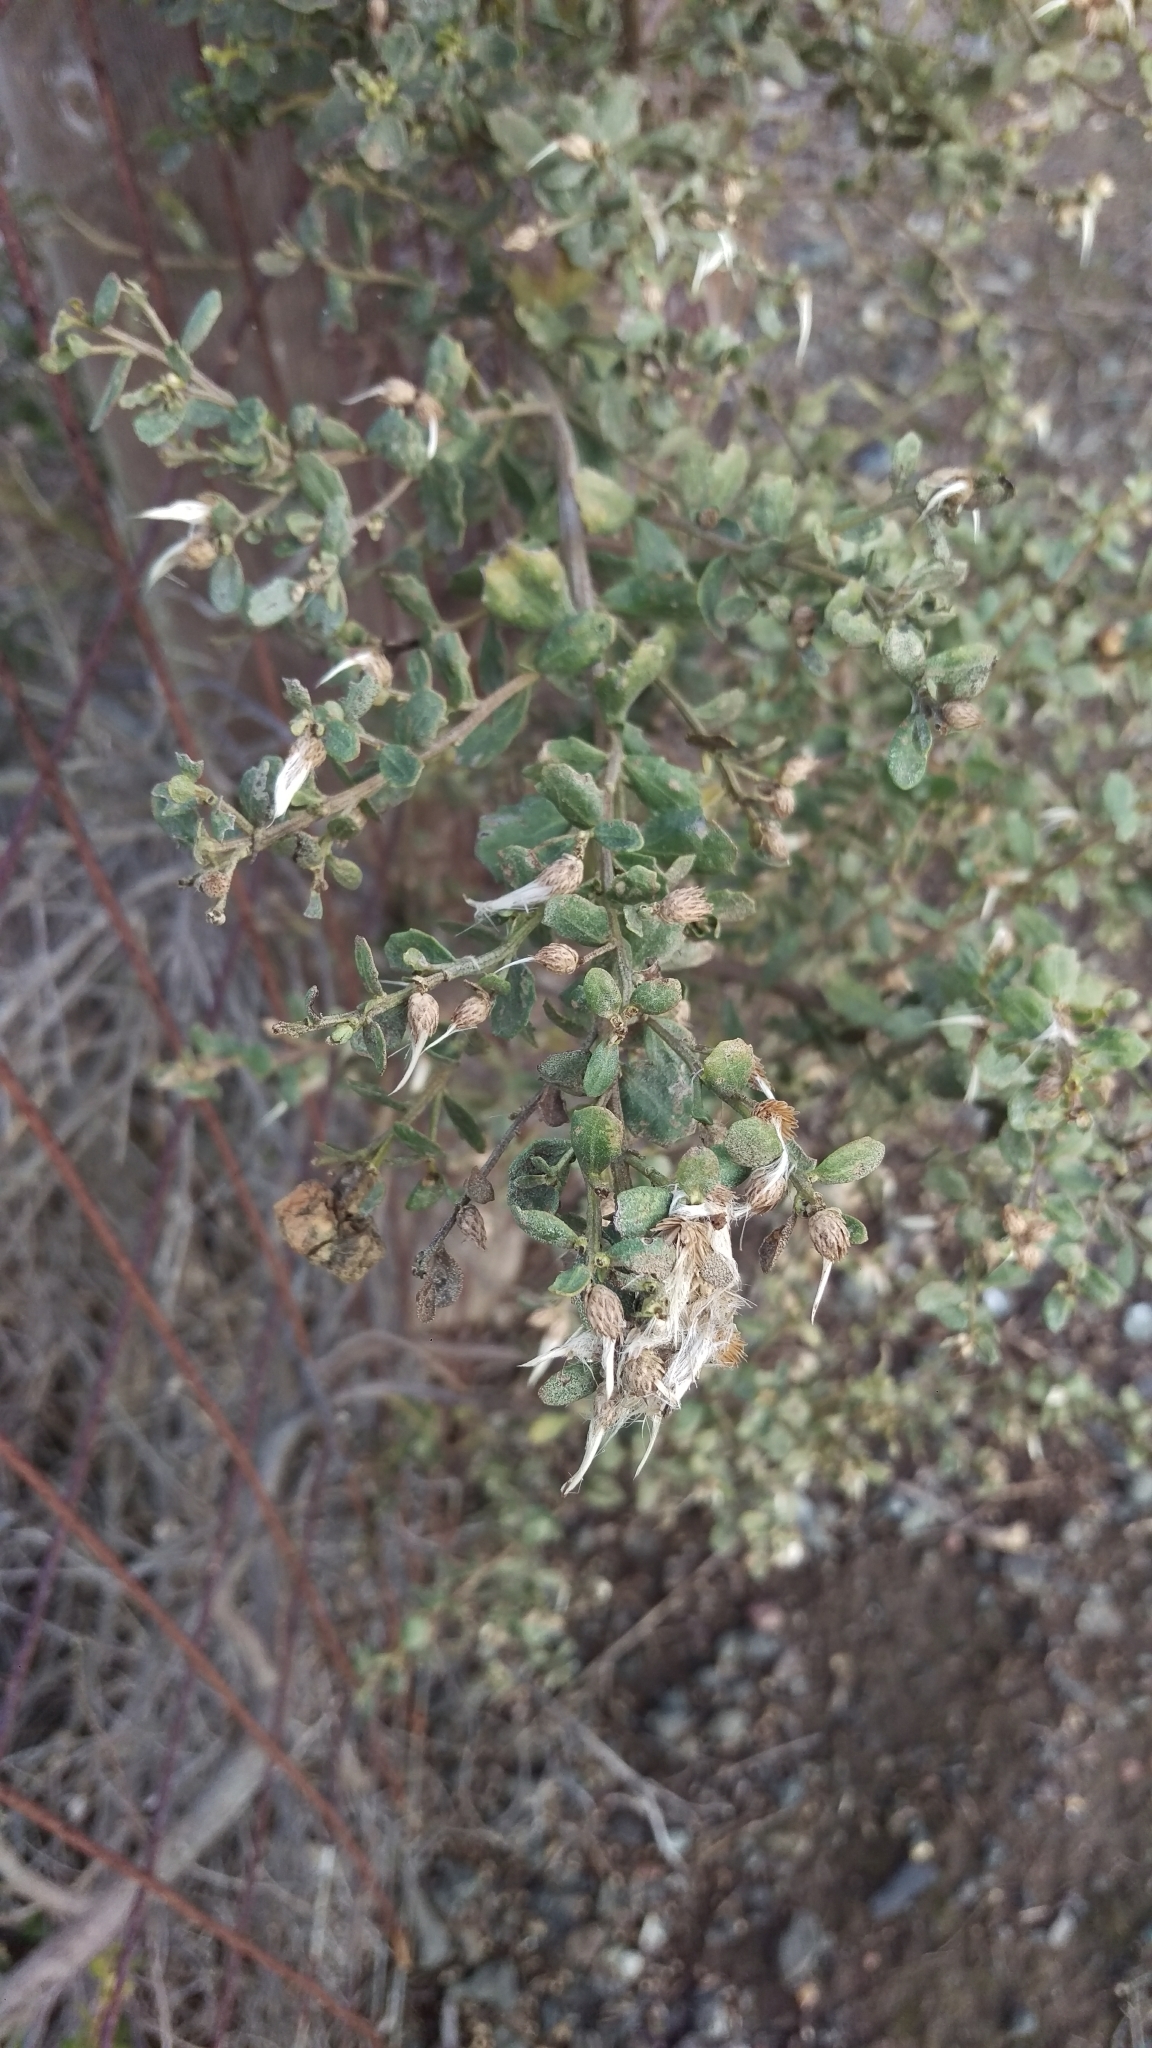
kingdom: Plantae
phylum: Tracheophyta
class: Magnoliopsida
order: Asterales
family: Asteraceae
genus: Baccharis
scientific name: Baccharis pilularis
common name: Coyotebrush
